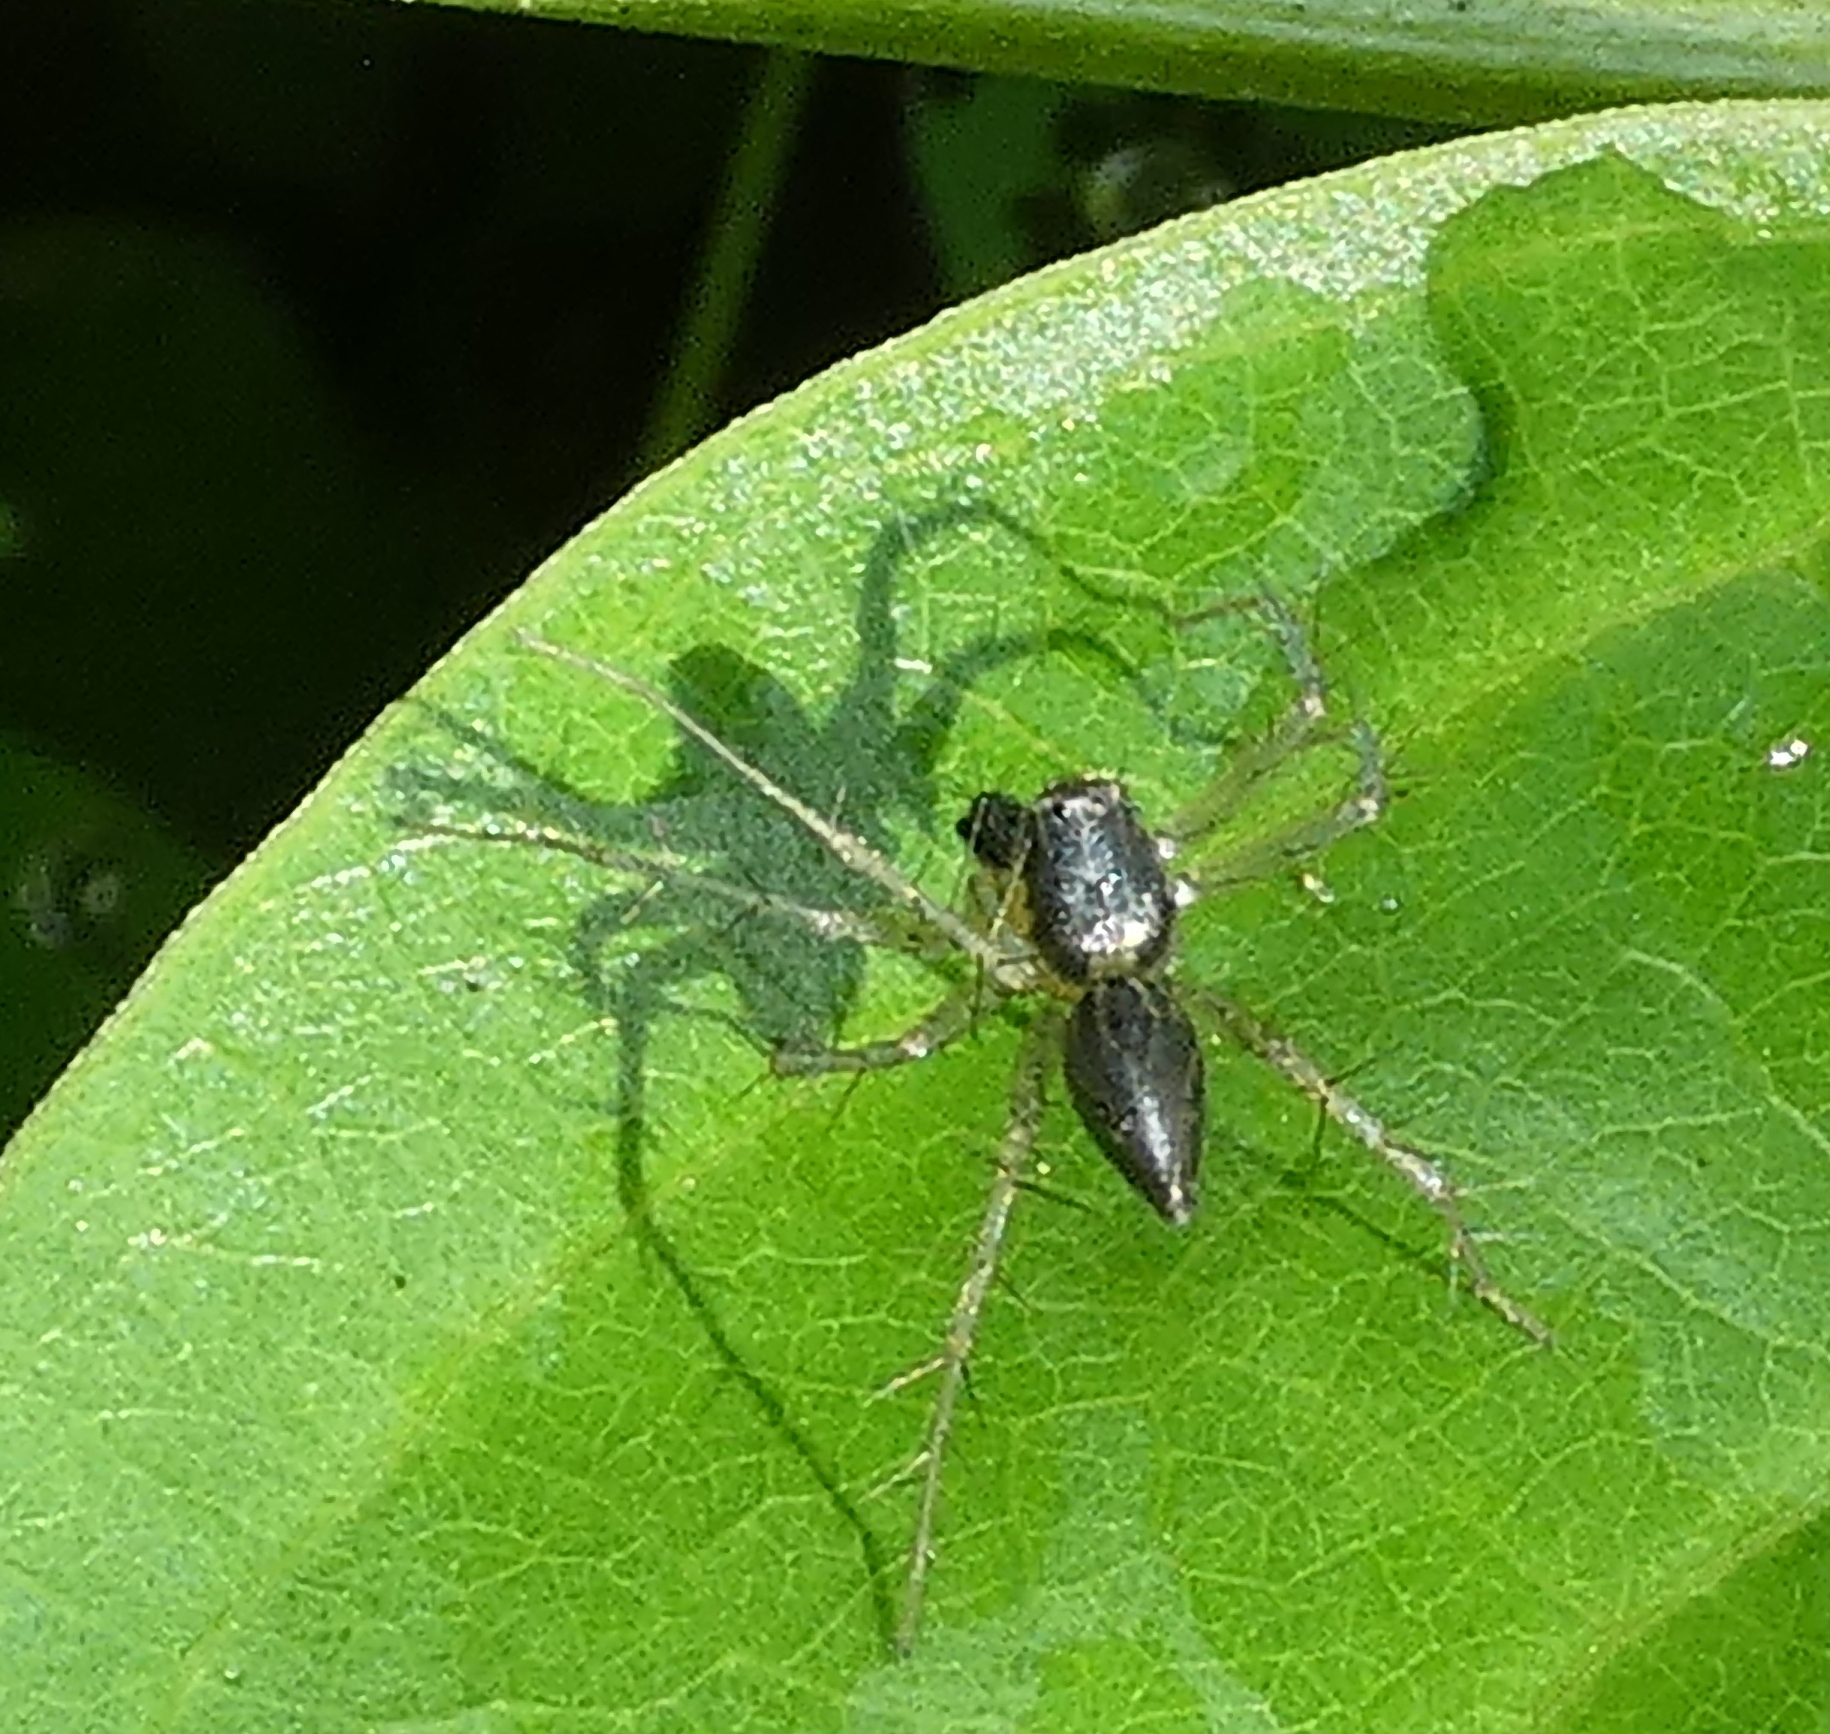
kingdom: Animalia
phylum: Arthropoda
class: Arachnida
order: Araneae
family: Oxyopidae
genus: Oxyopes
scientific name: Oxyopes salticus
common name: Lynx spiders
